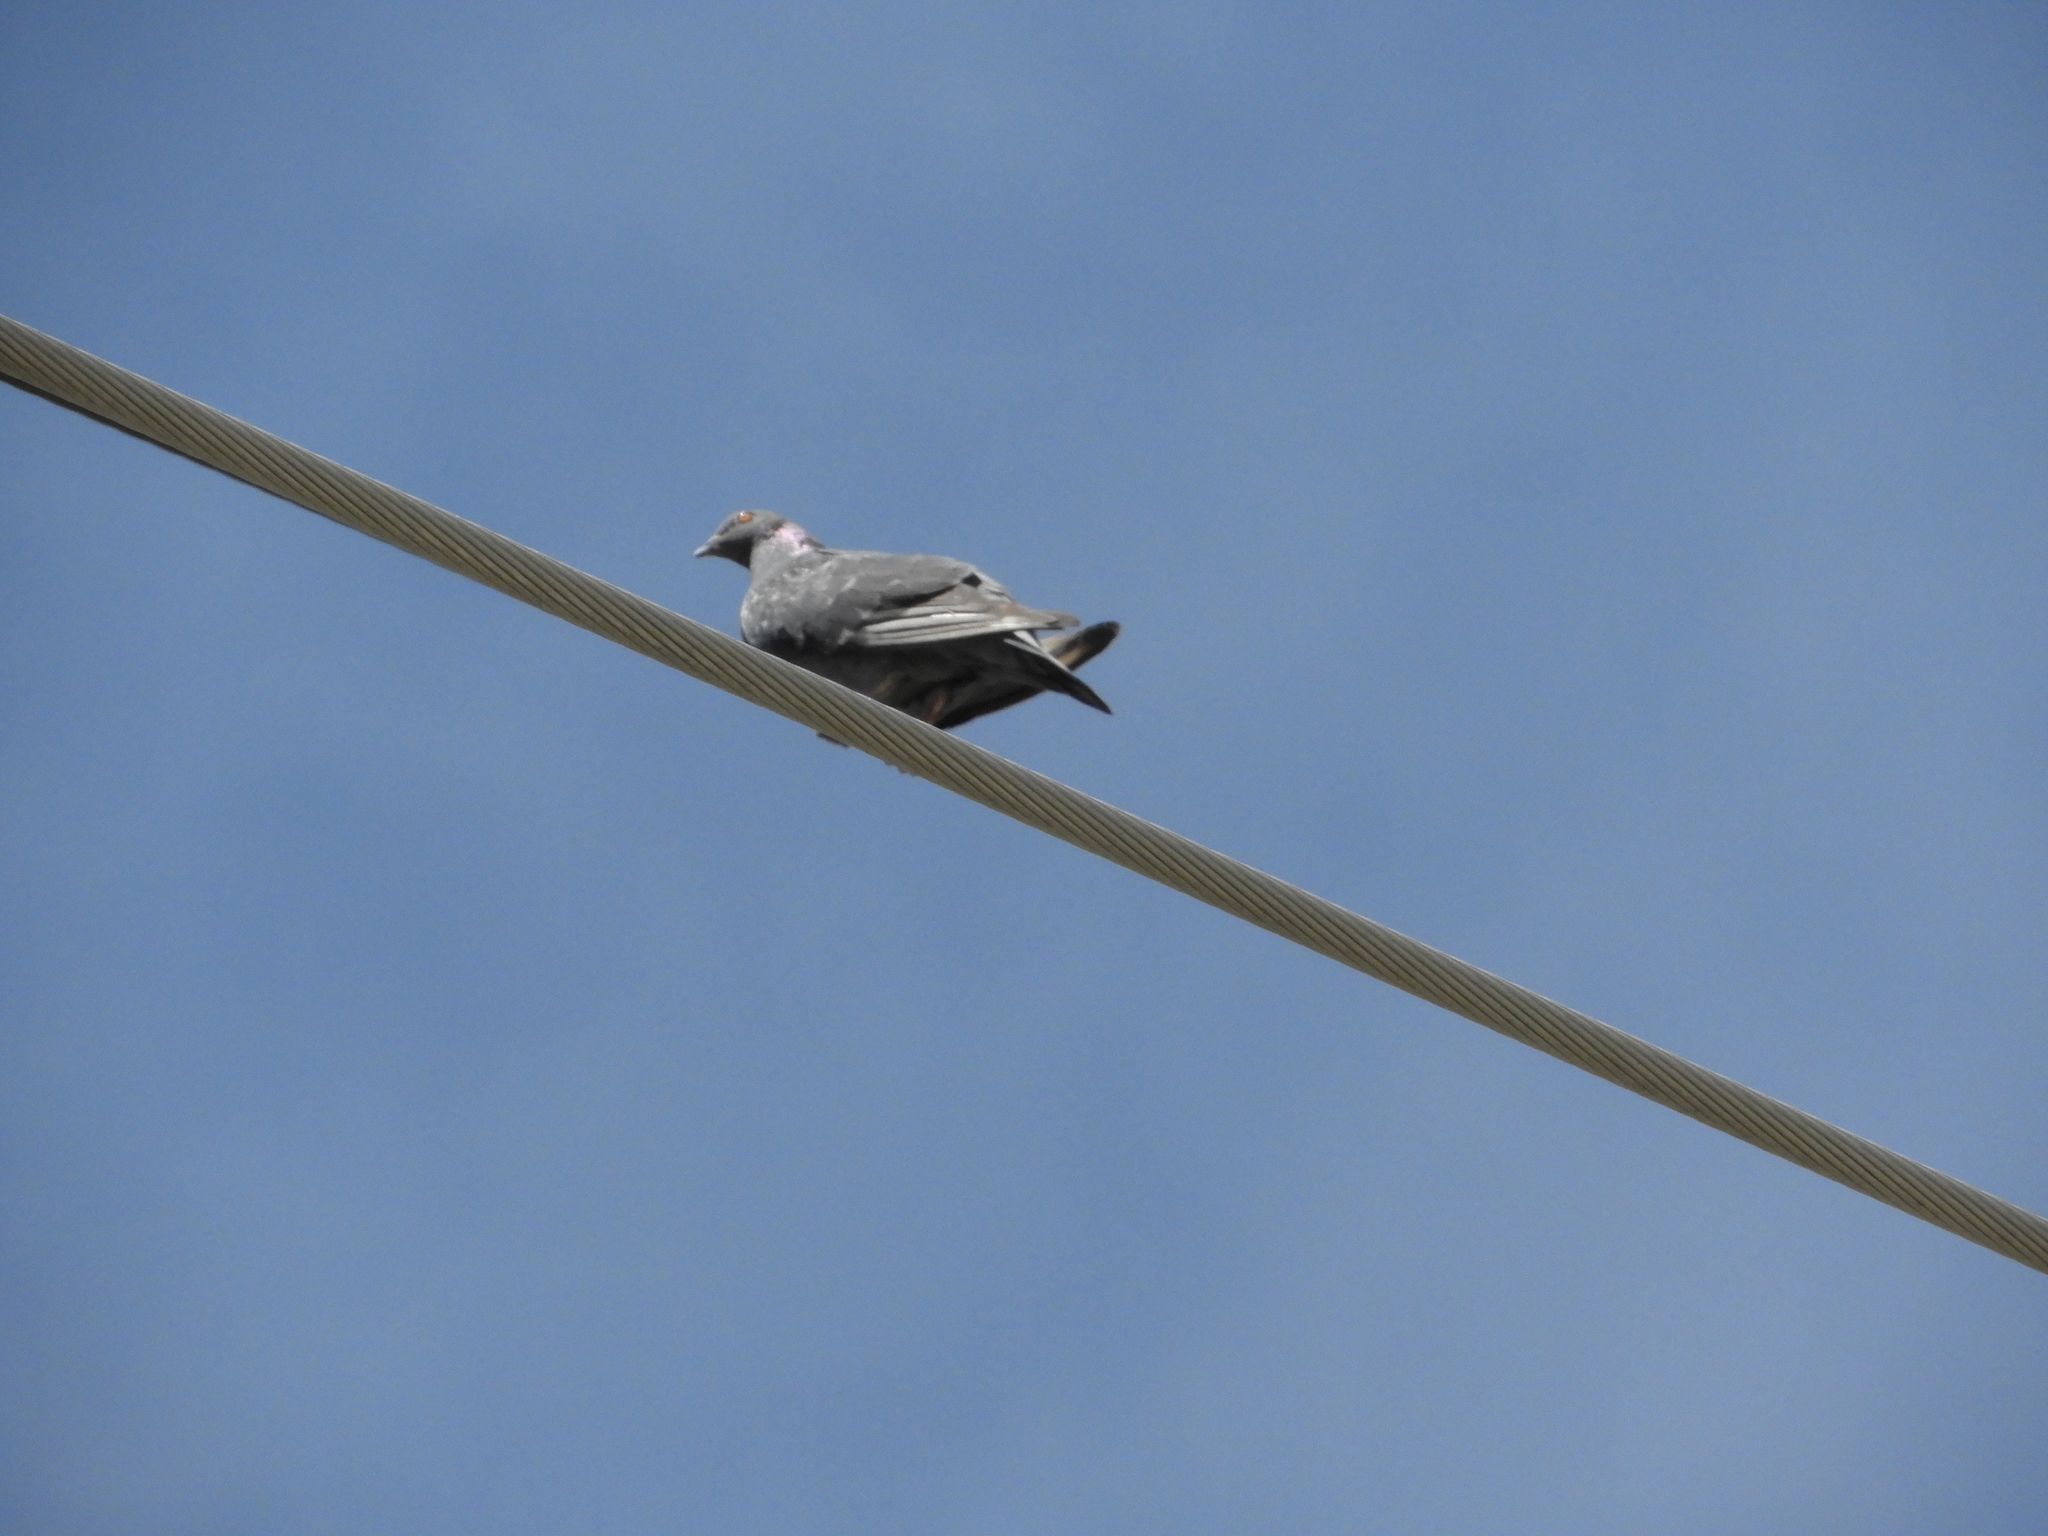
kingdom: Animalia
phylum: Chordata
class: Aves
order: Columbiformes
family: Columbidae
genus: Columba
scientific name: Columba livia
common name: Rock pigeon
